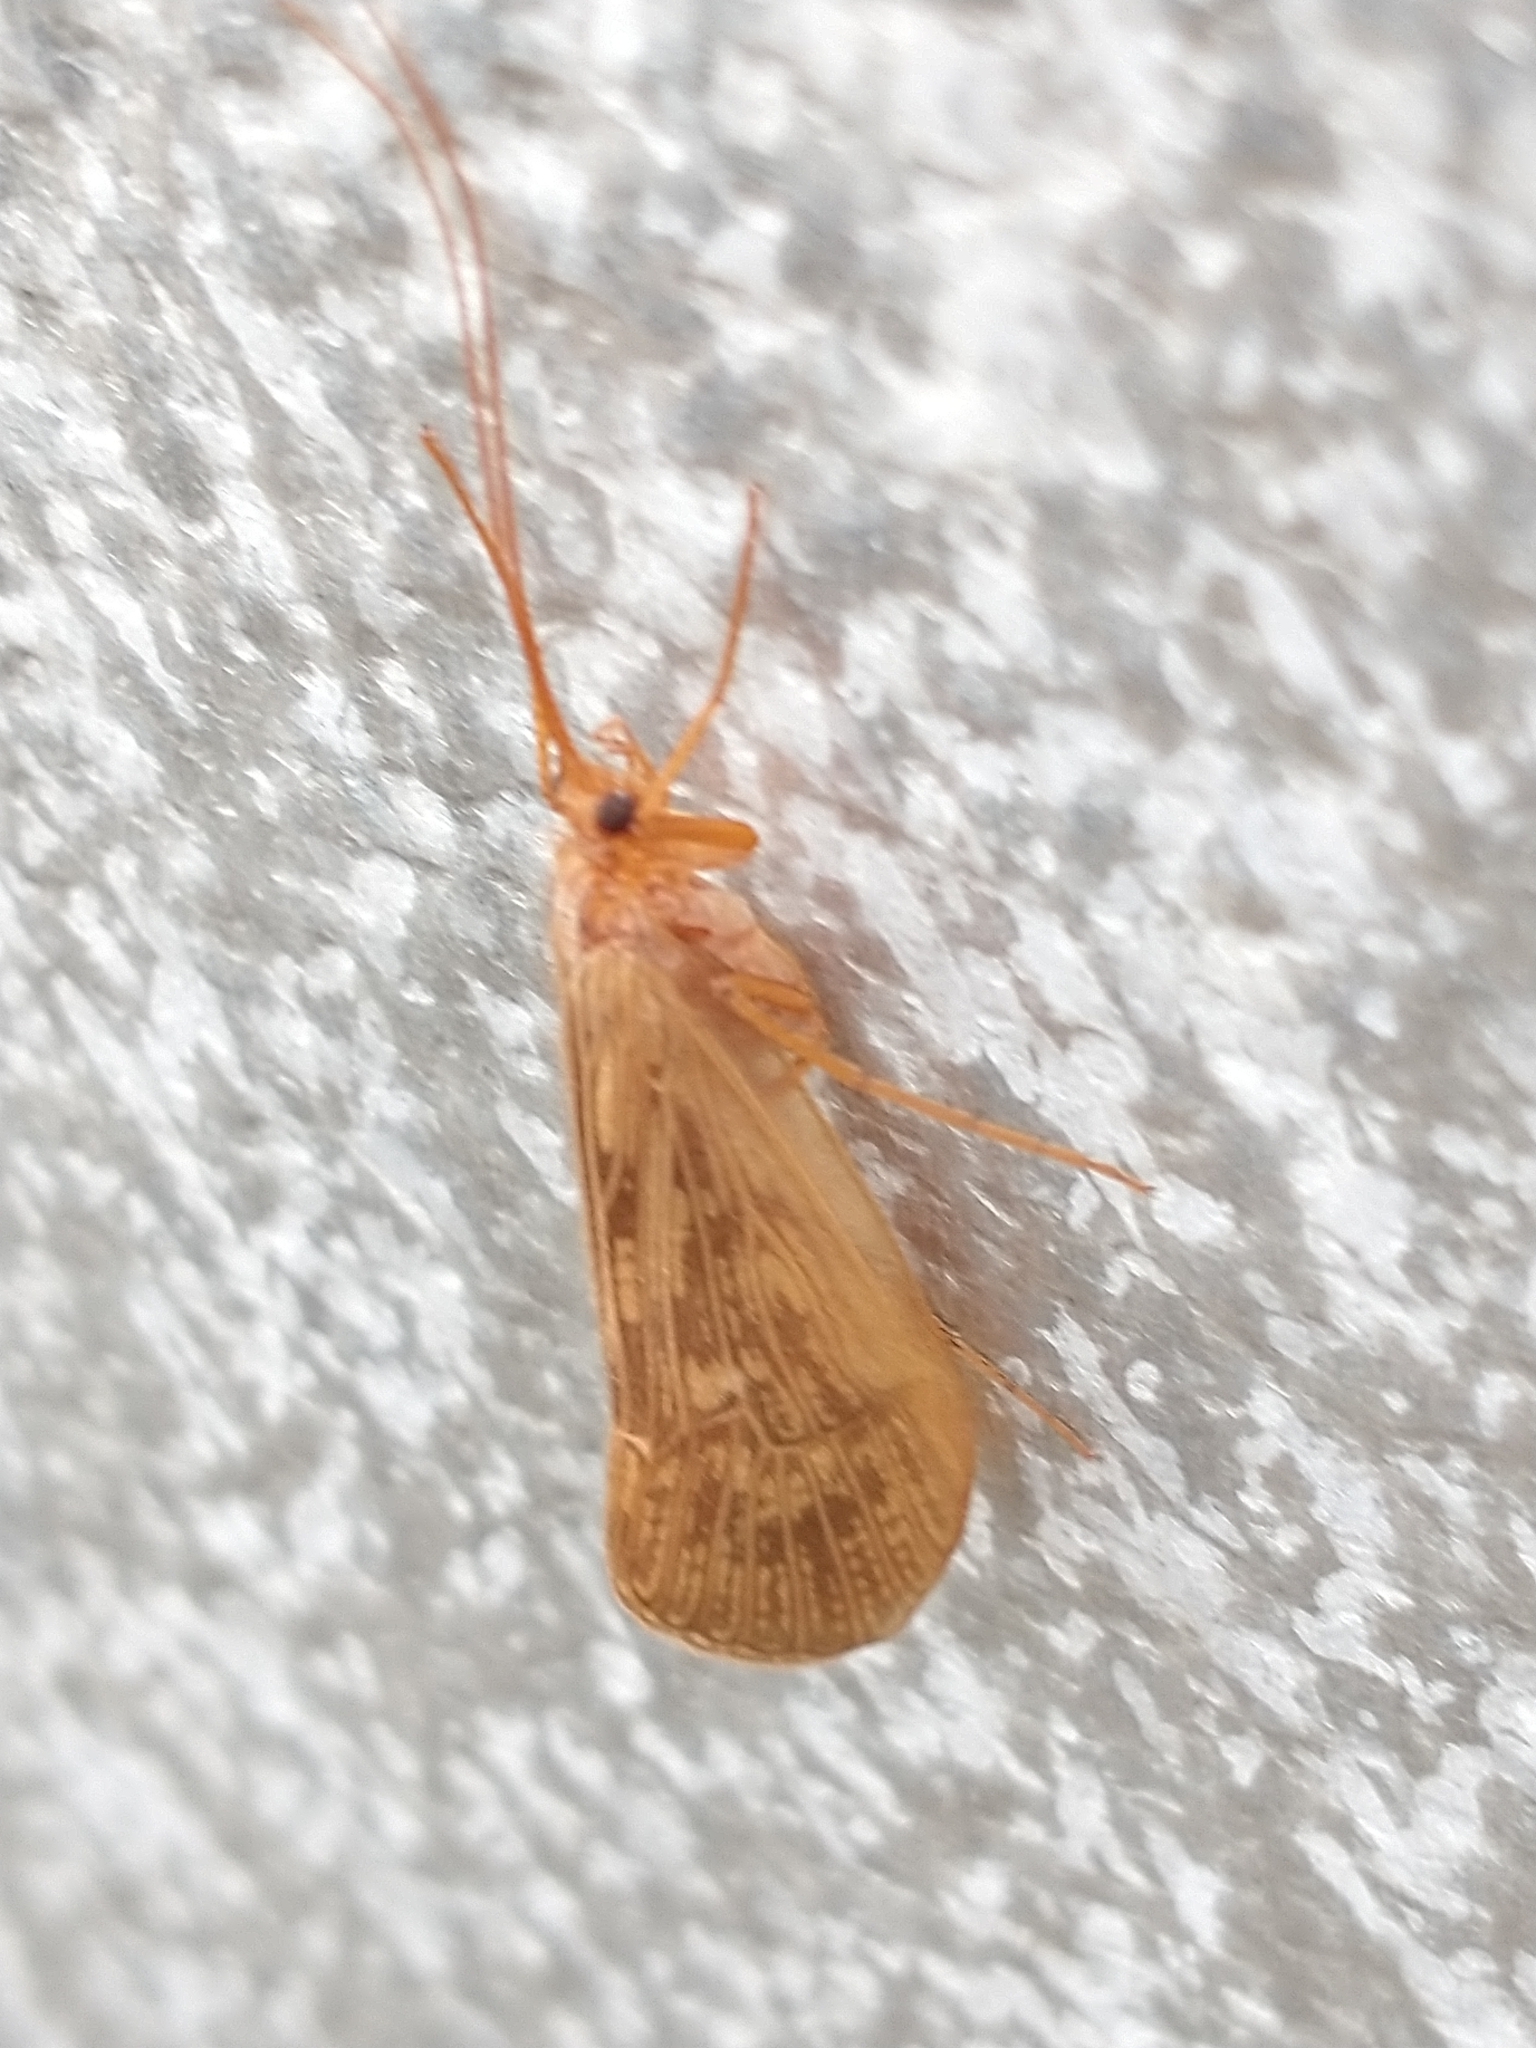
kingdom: Animalia
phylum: Arthropoda
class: Insecta
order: Trichoptera
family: Limnephilidae
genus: Halesus
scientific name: Halesus digitatus
